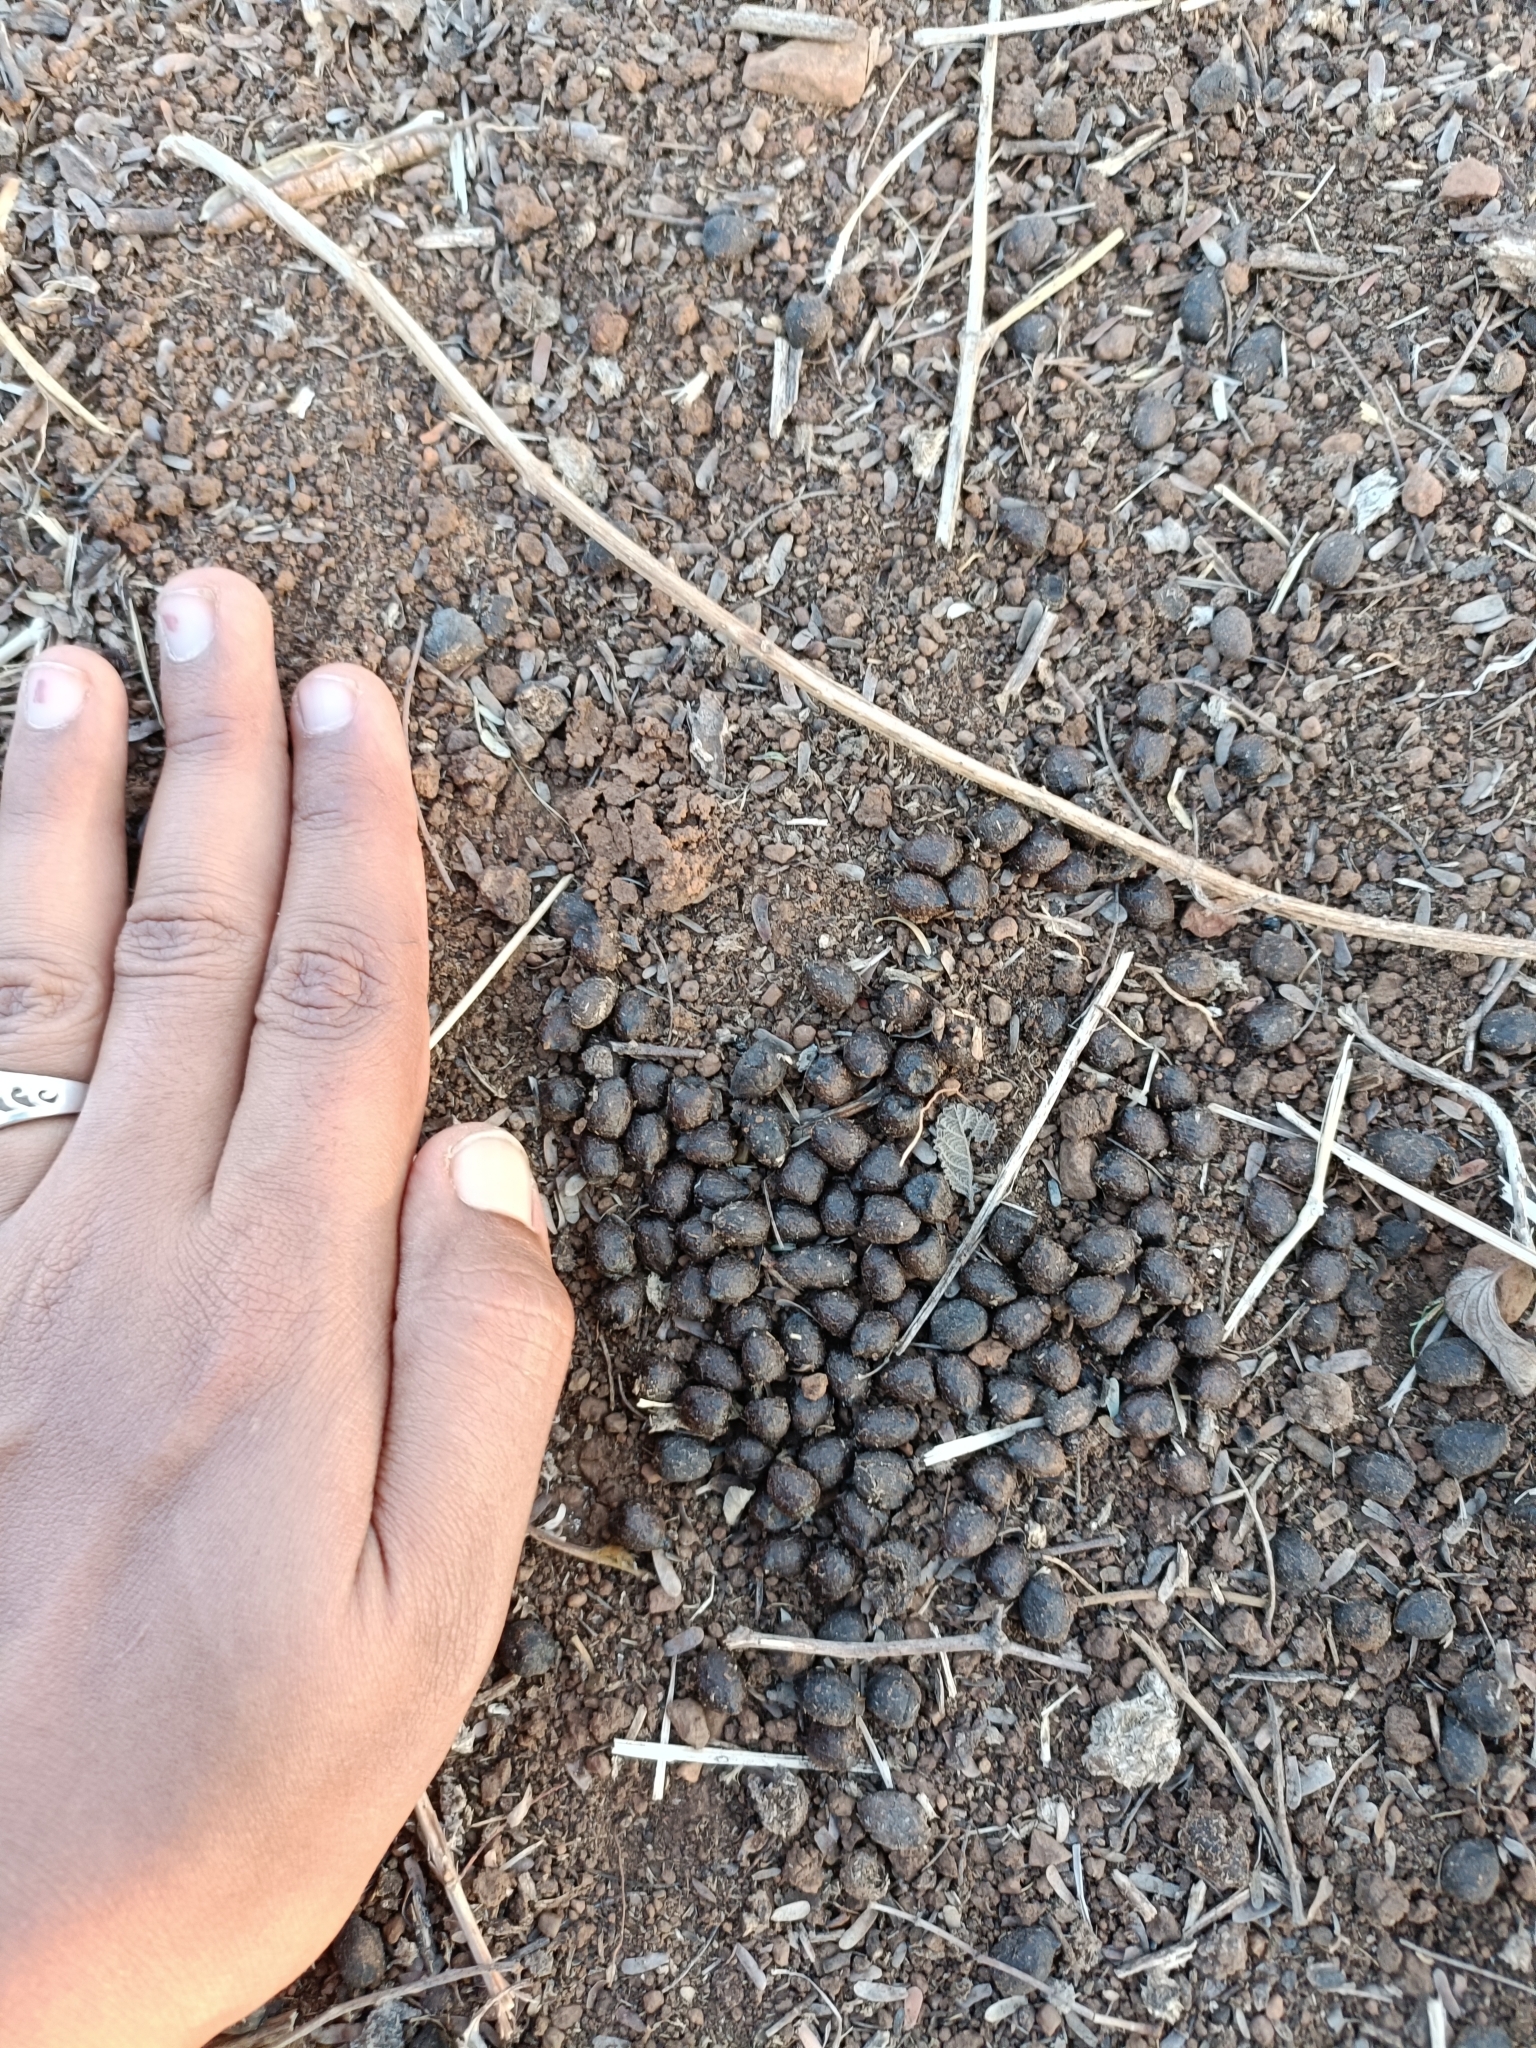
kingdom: Animalia
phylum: Chordata
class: Mammalia
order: Artiodactyla
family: Bovidae
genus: Gazella
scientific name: Gazella bennettii
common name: Indian gazelle
